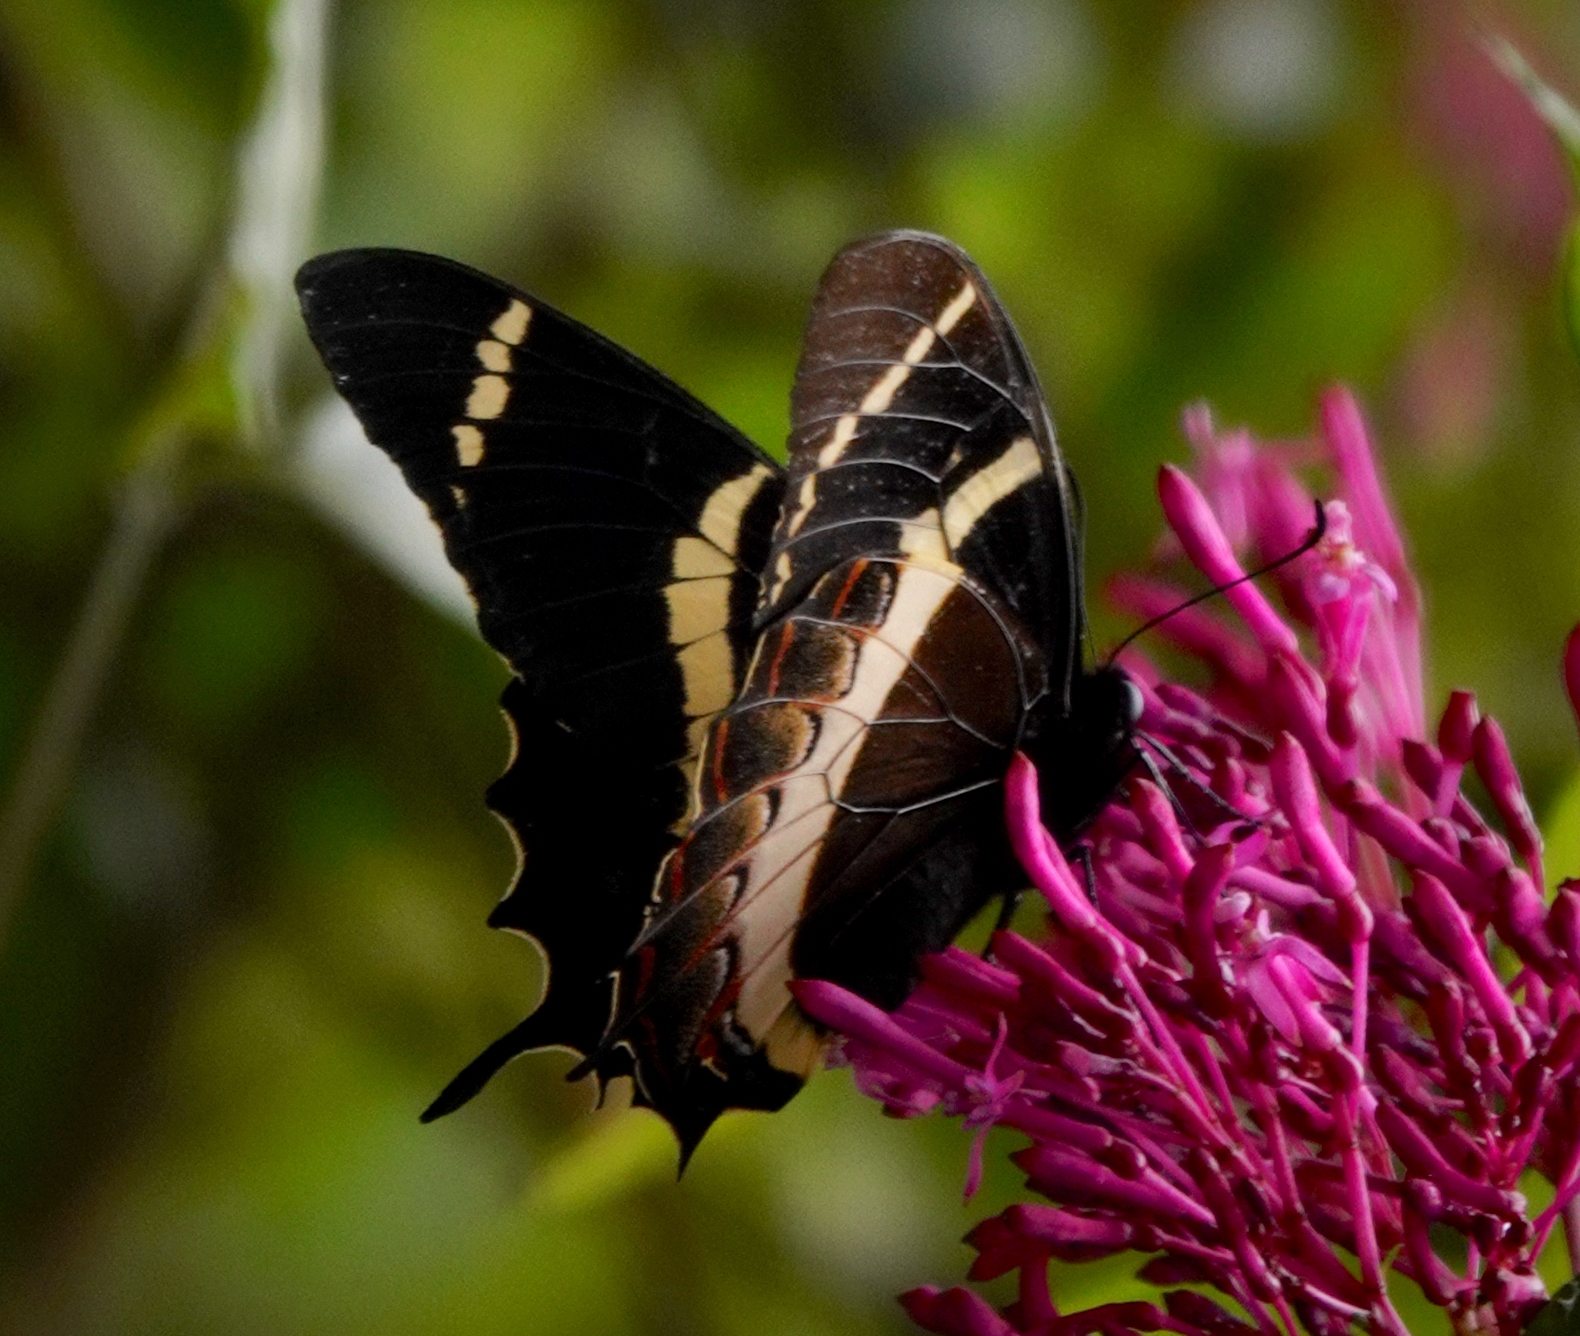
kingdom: Animalia
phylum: Arthropoda
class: Insecta
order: Lepidoptera
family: Papilionidae
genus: Papilio
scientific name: Papilio garamas
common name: Magnificent swallowtail
